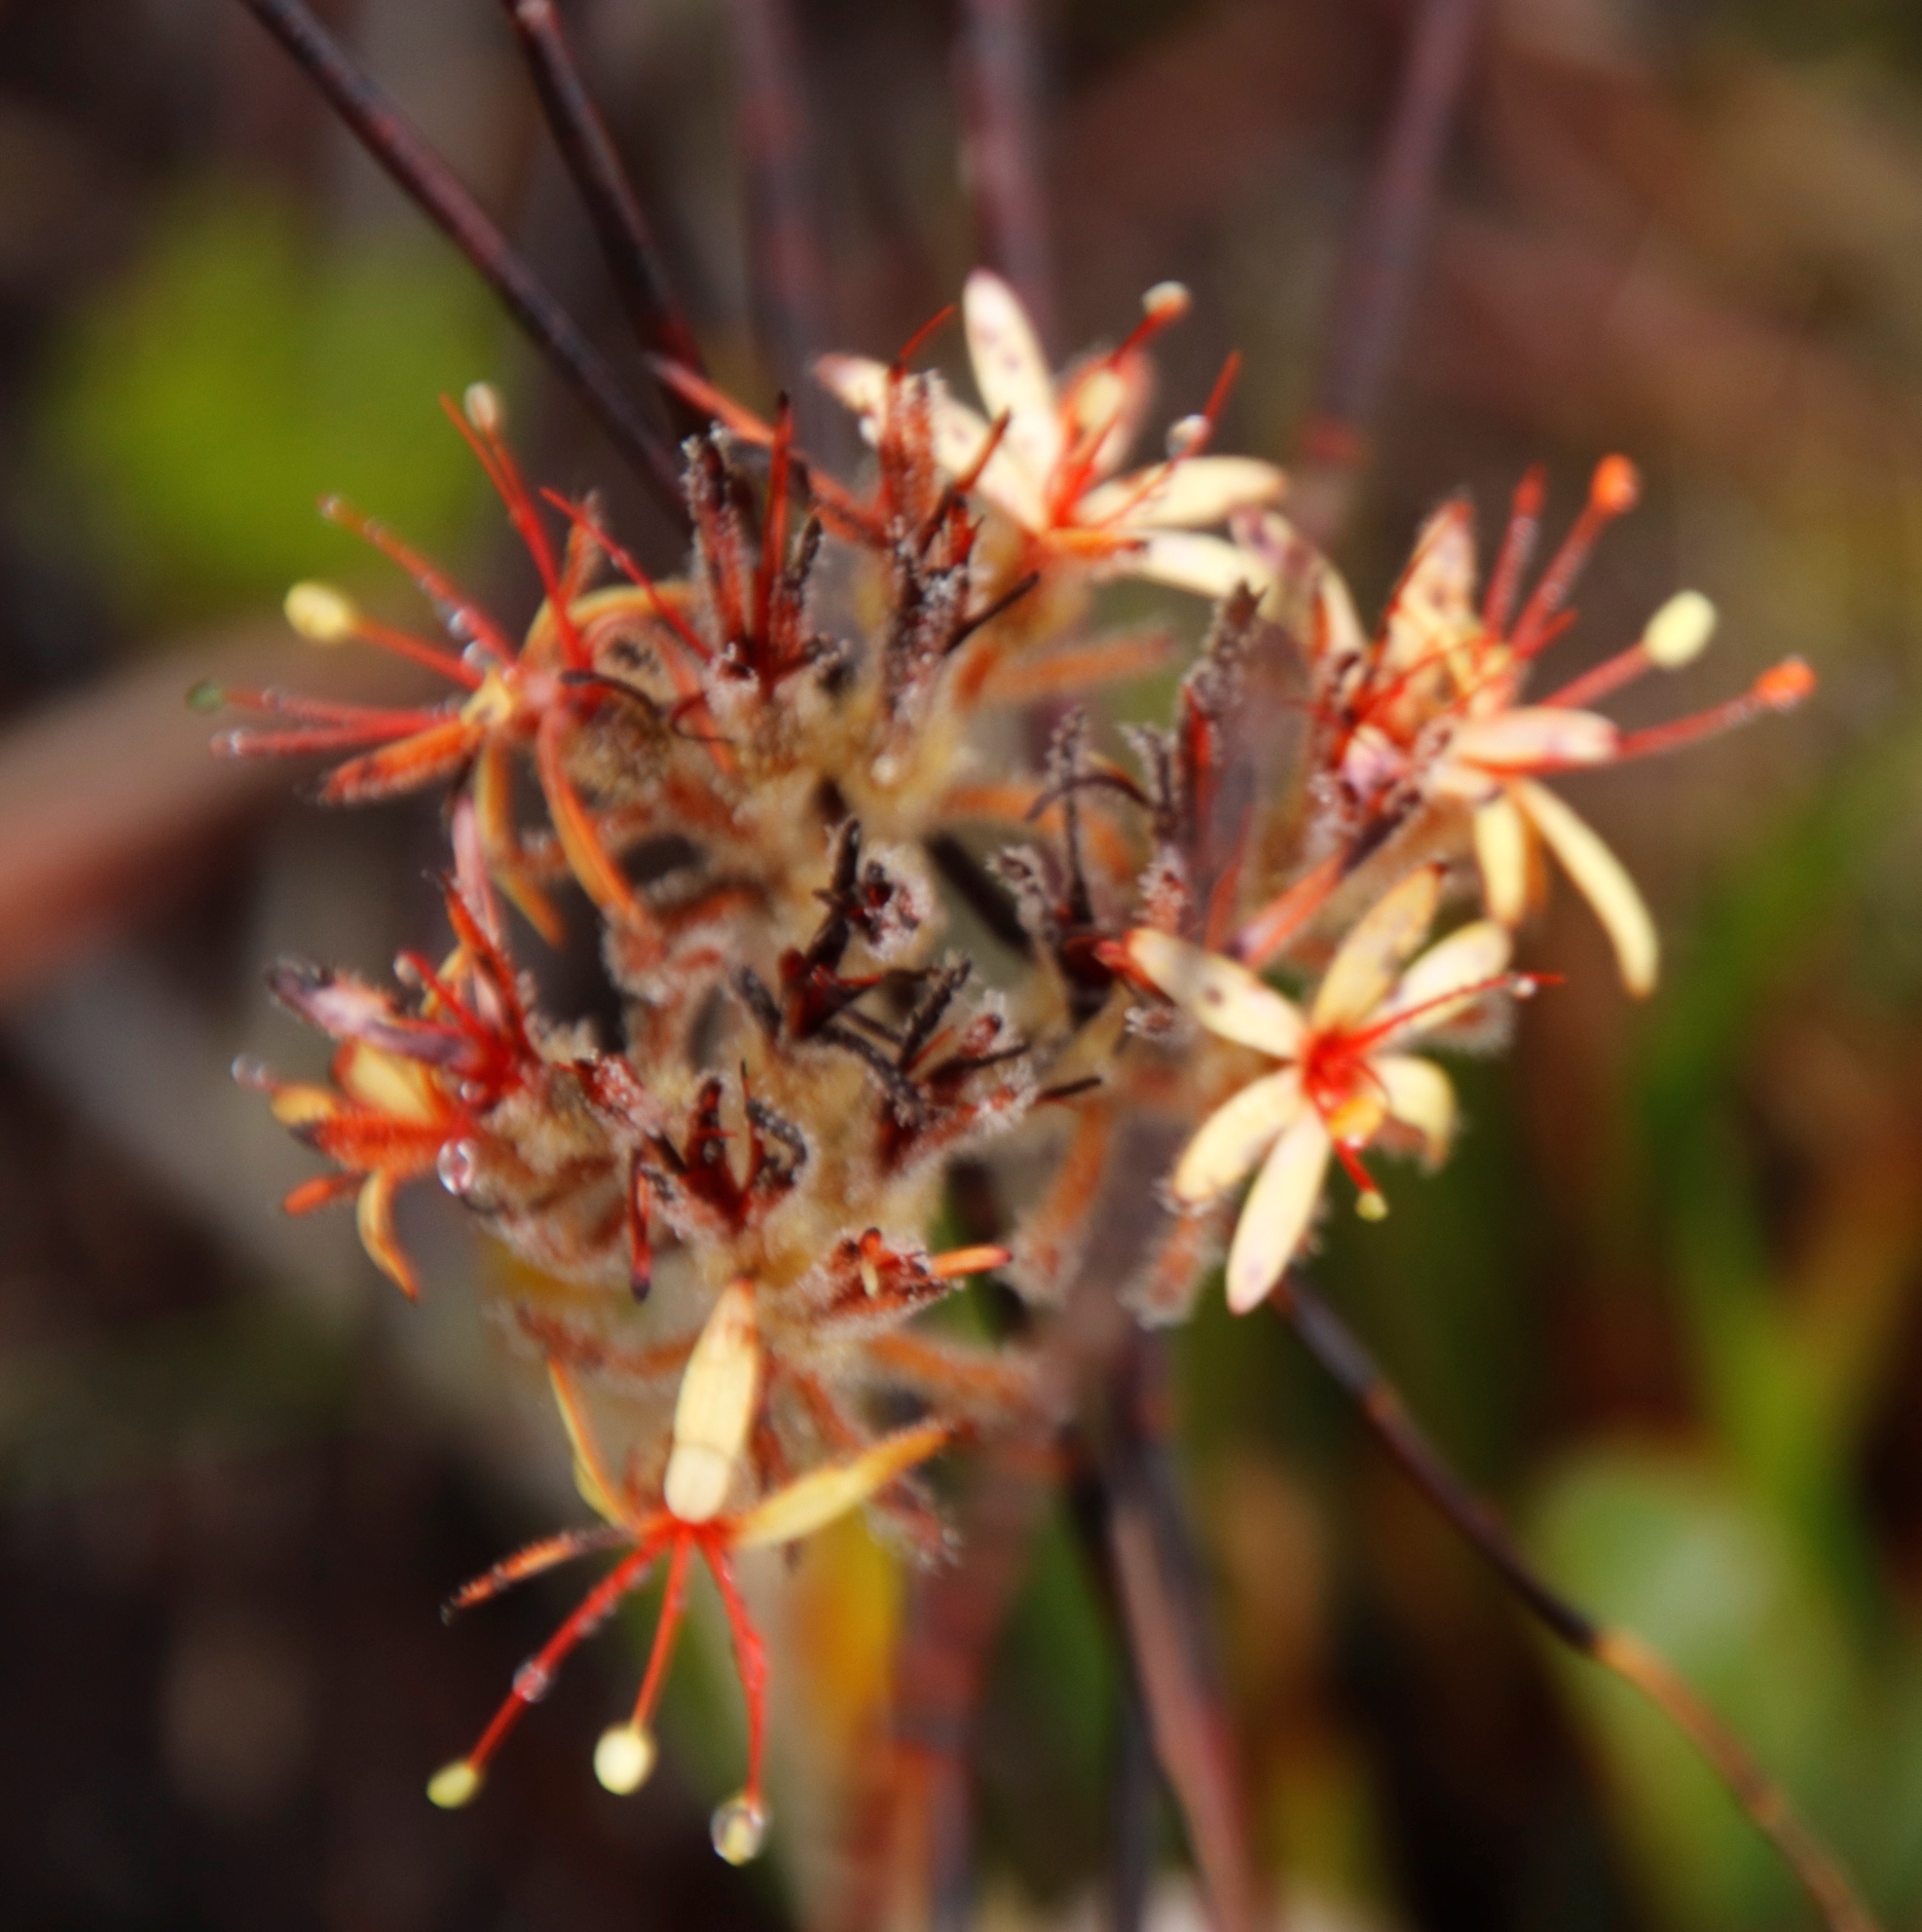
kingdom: Plantae
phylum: Tracheophyta
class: Liliopsida
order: Commelinales
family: Haemodoraceae
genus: Dilatris
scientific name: Dilatris viscosa
